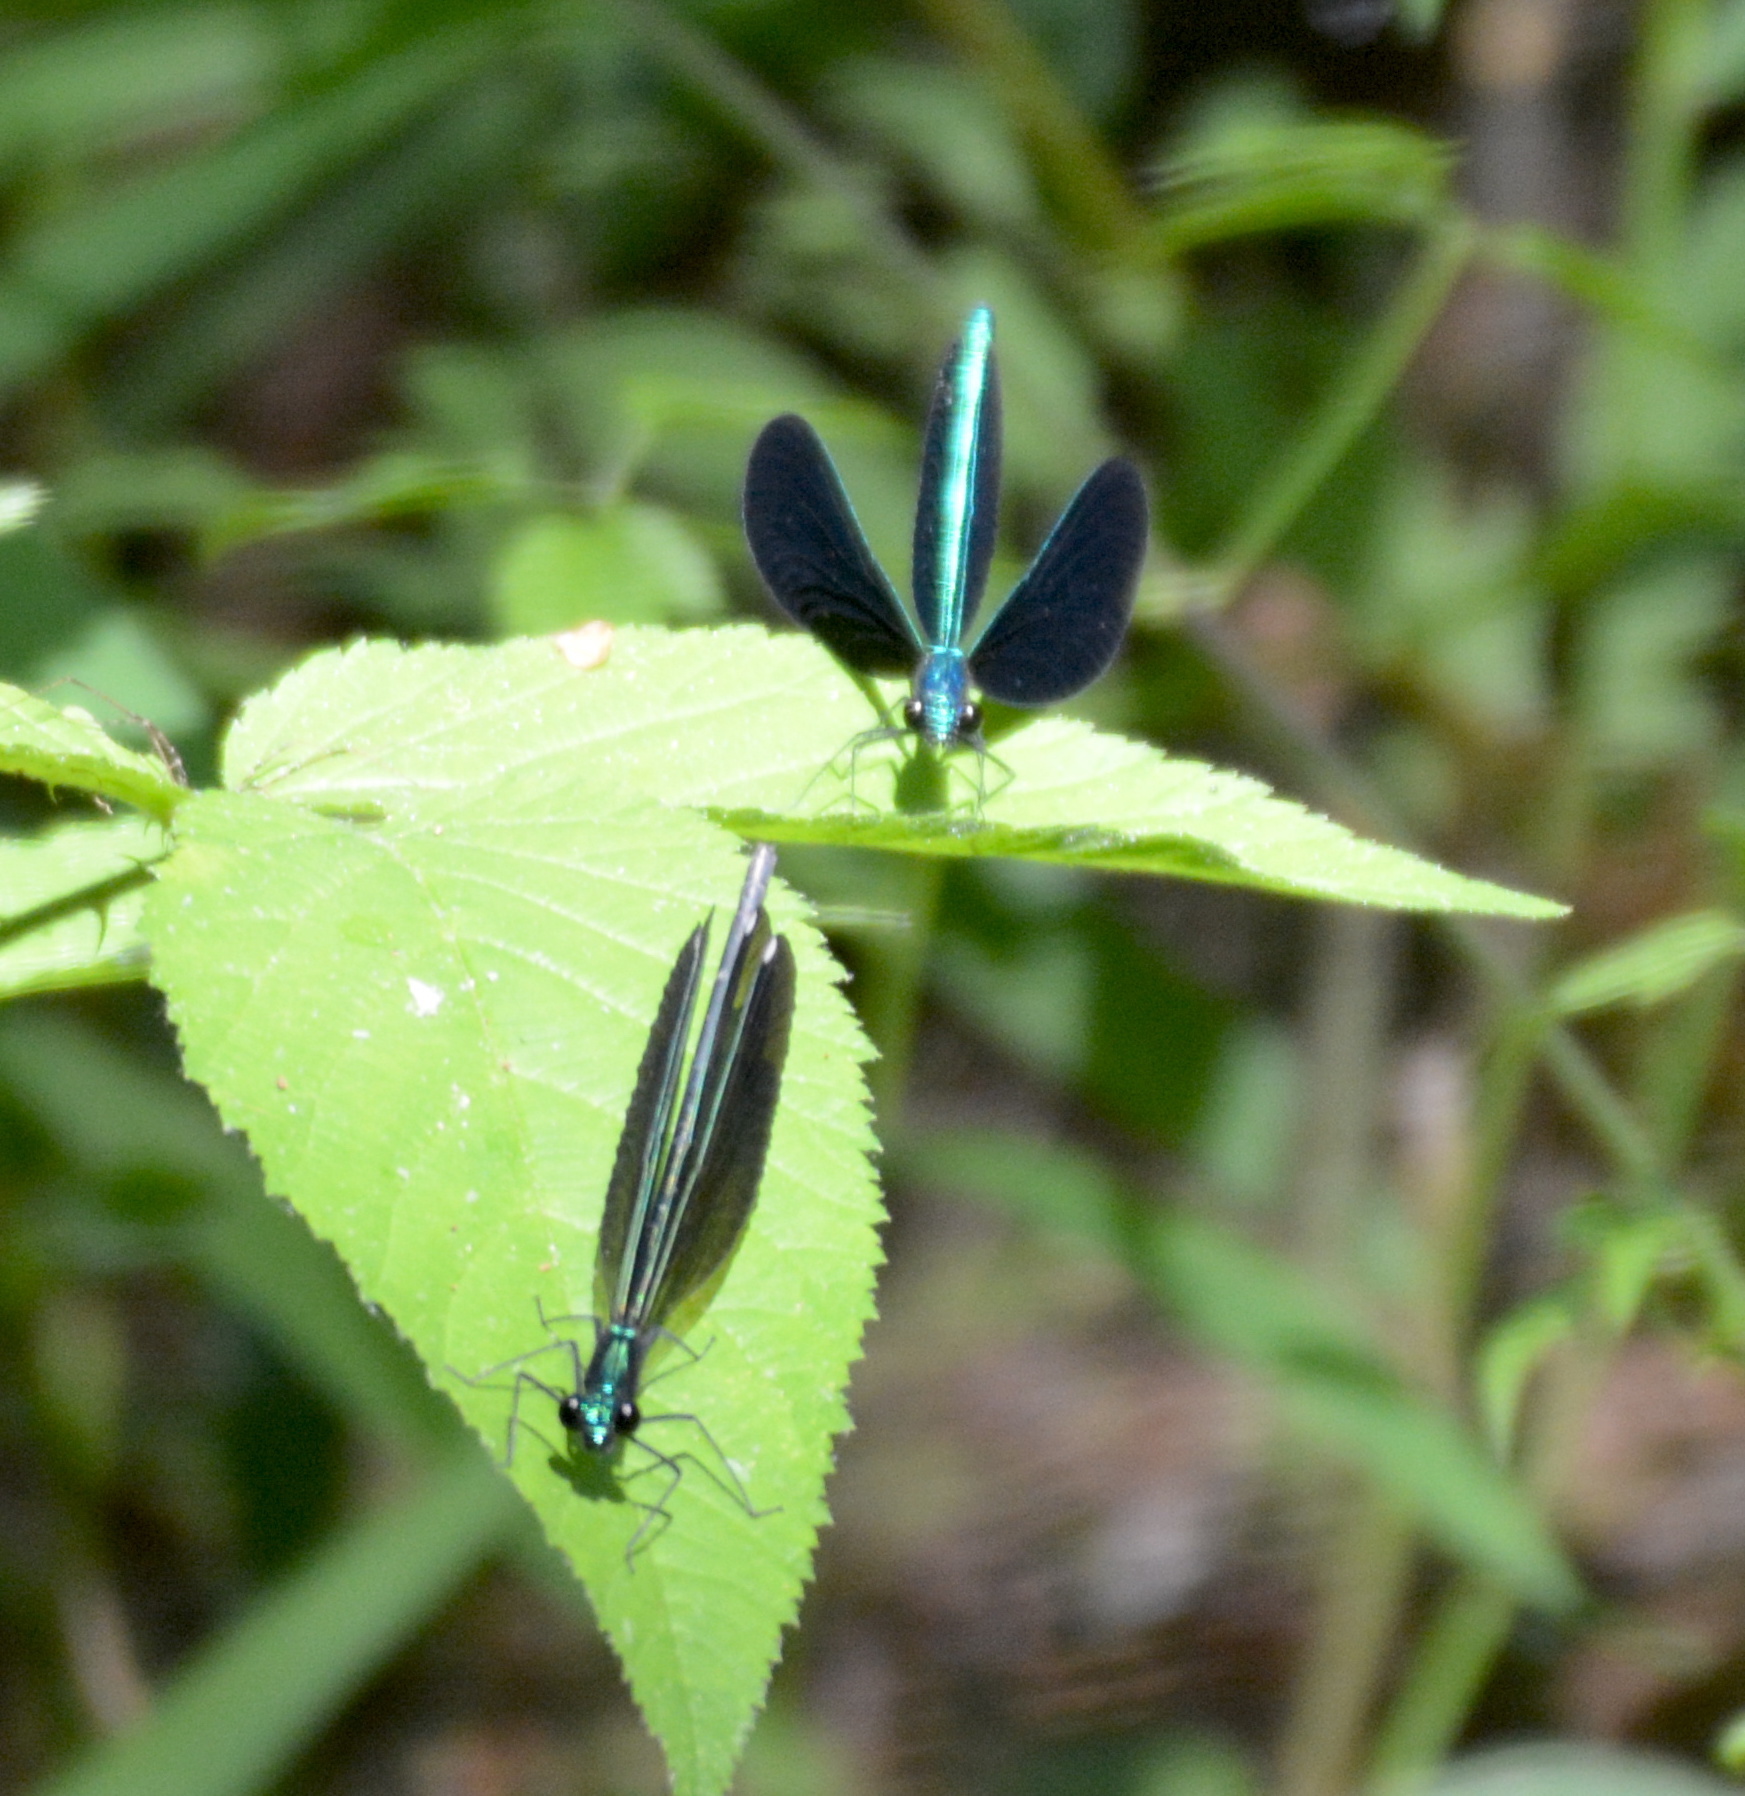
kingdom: Animalia
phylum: Arthropoda
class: Insecta
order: Odonata
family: Calopterygidae
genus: Calopteryx
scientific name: Calopteryx maculata
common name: Ebony jewelwing
